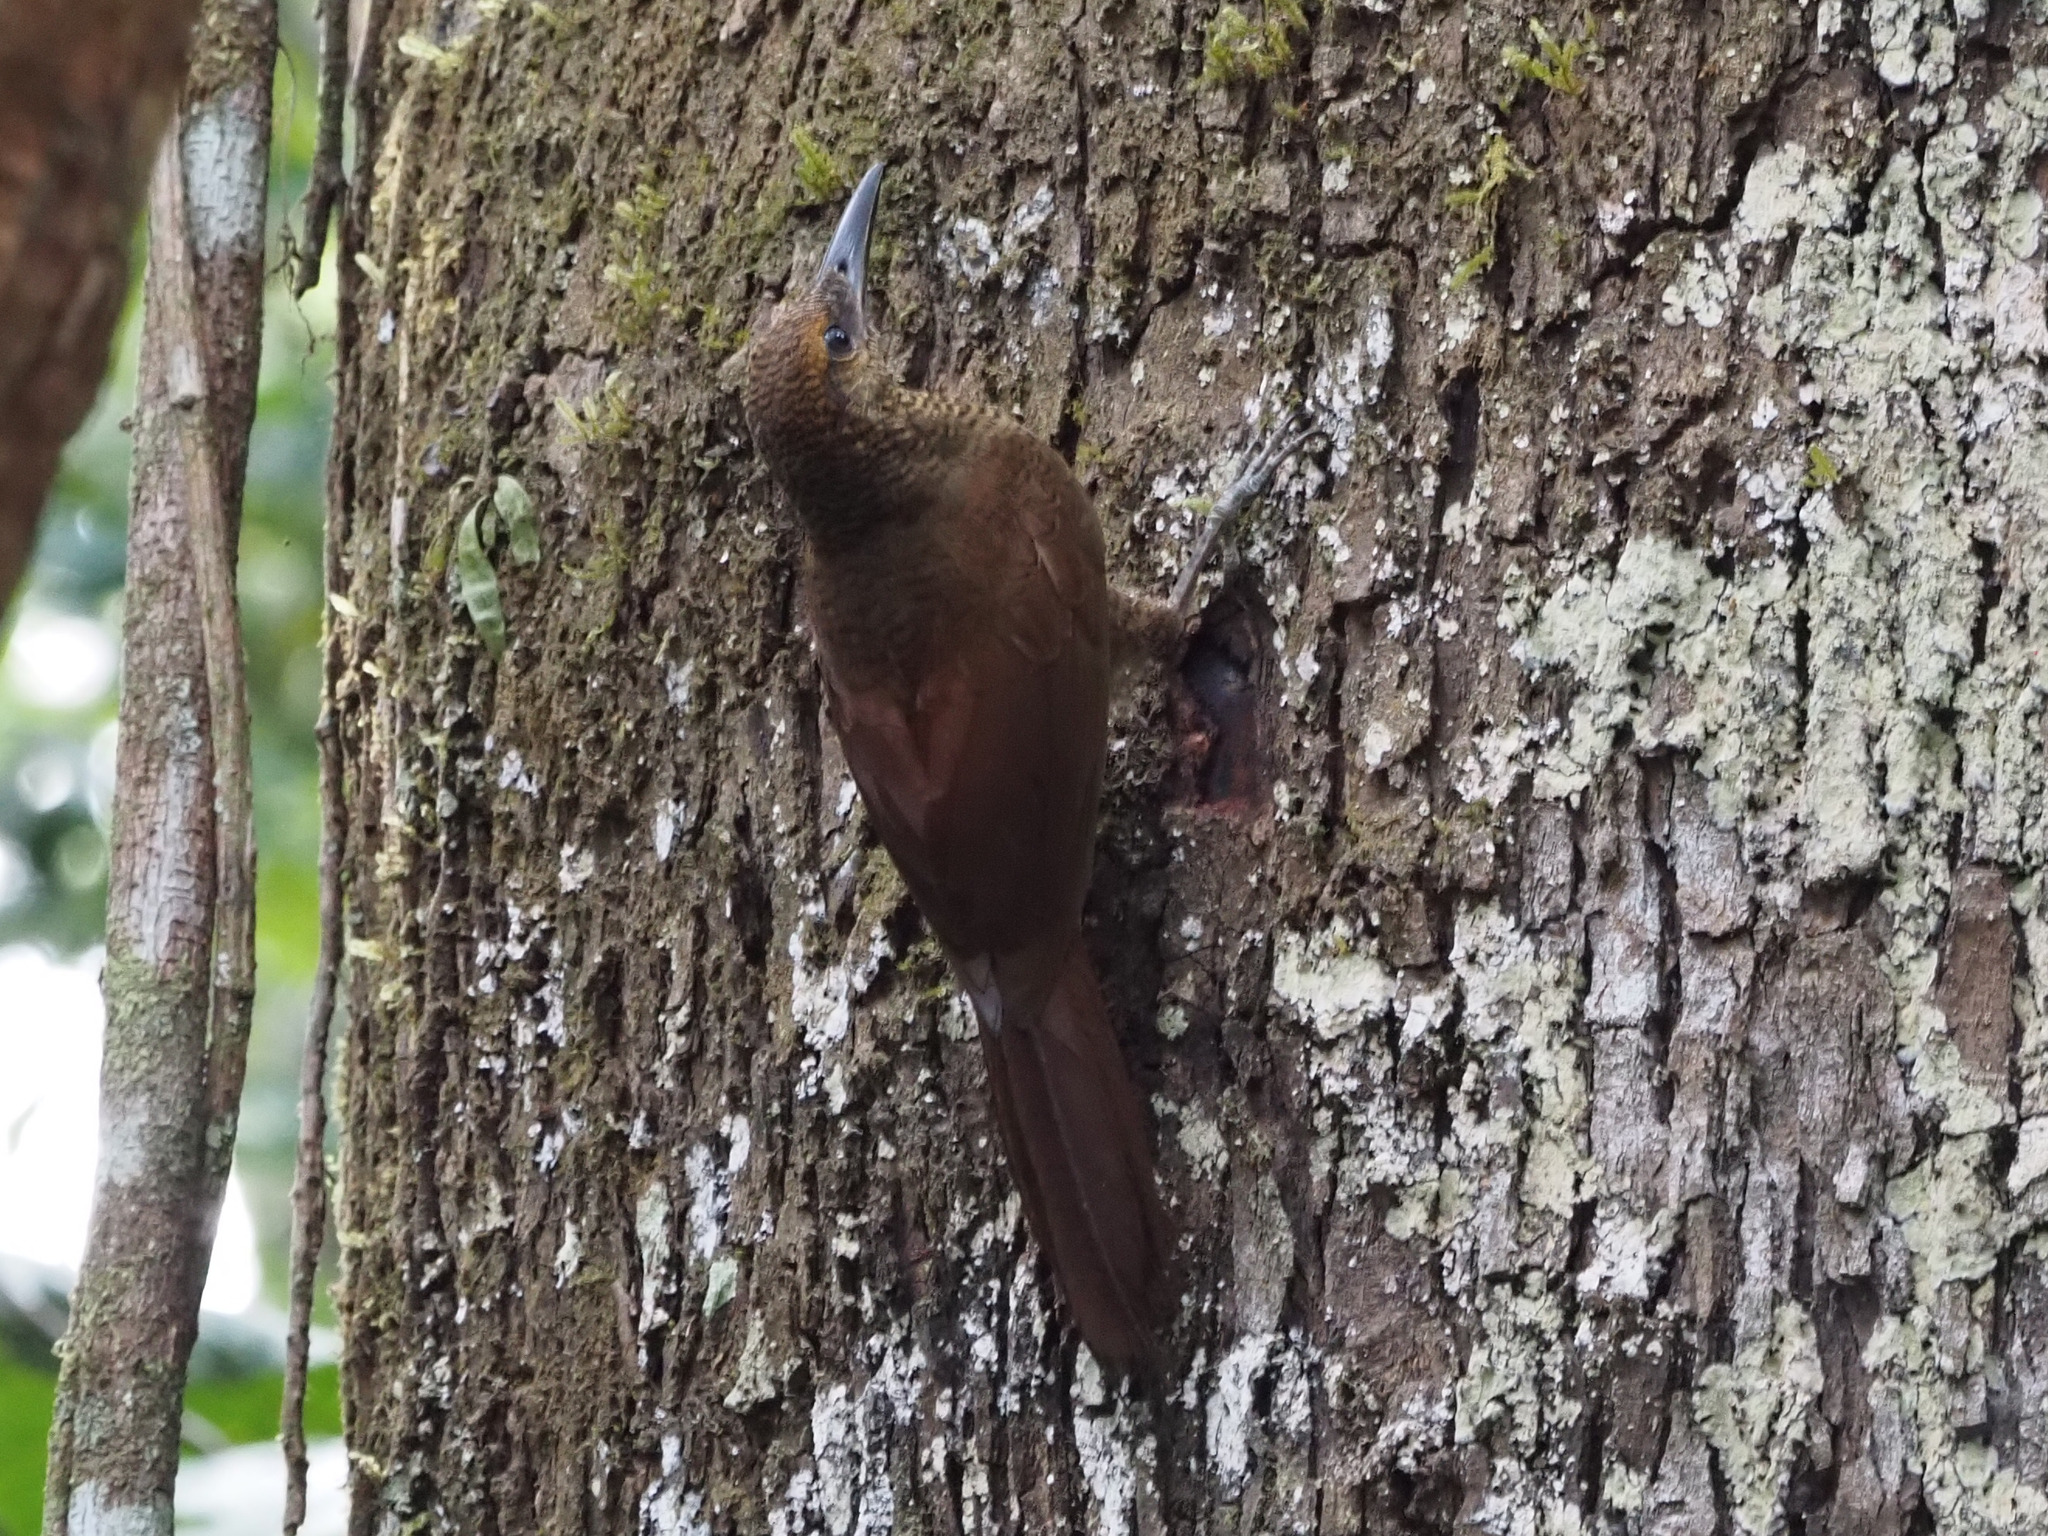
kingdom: Animalia
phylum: Chordata
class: Aves
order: Passeriformes
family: Furnariidae
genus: Dendrocolaptes
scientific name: Dendrocolaptes sanctithomae
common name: Northern barred-woodcreeper
